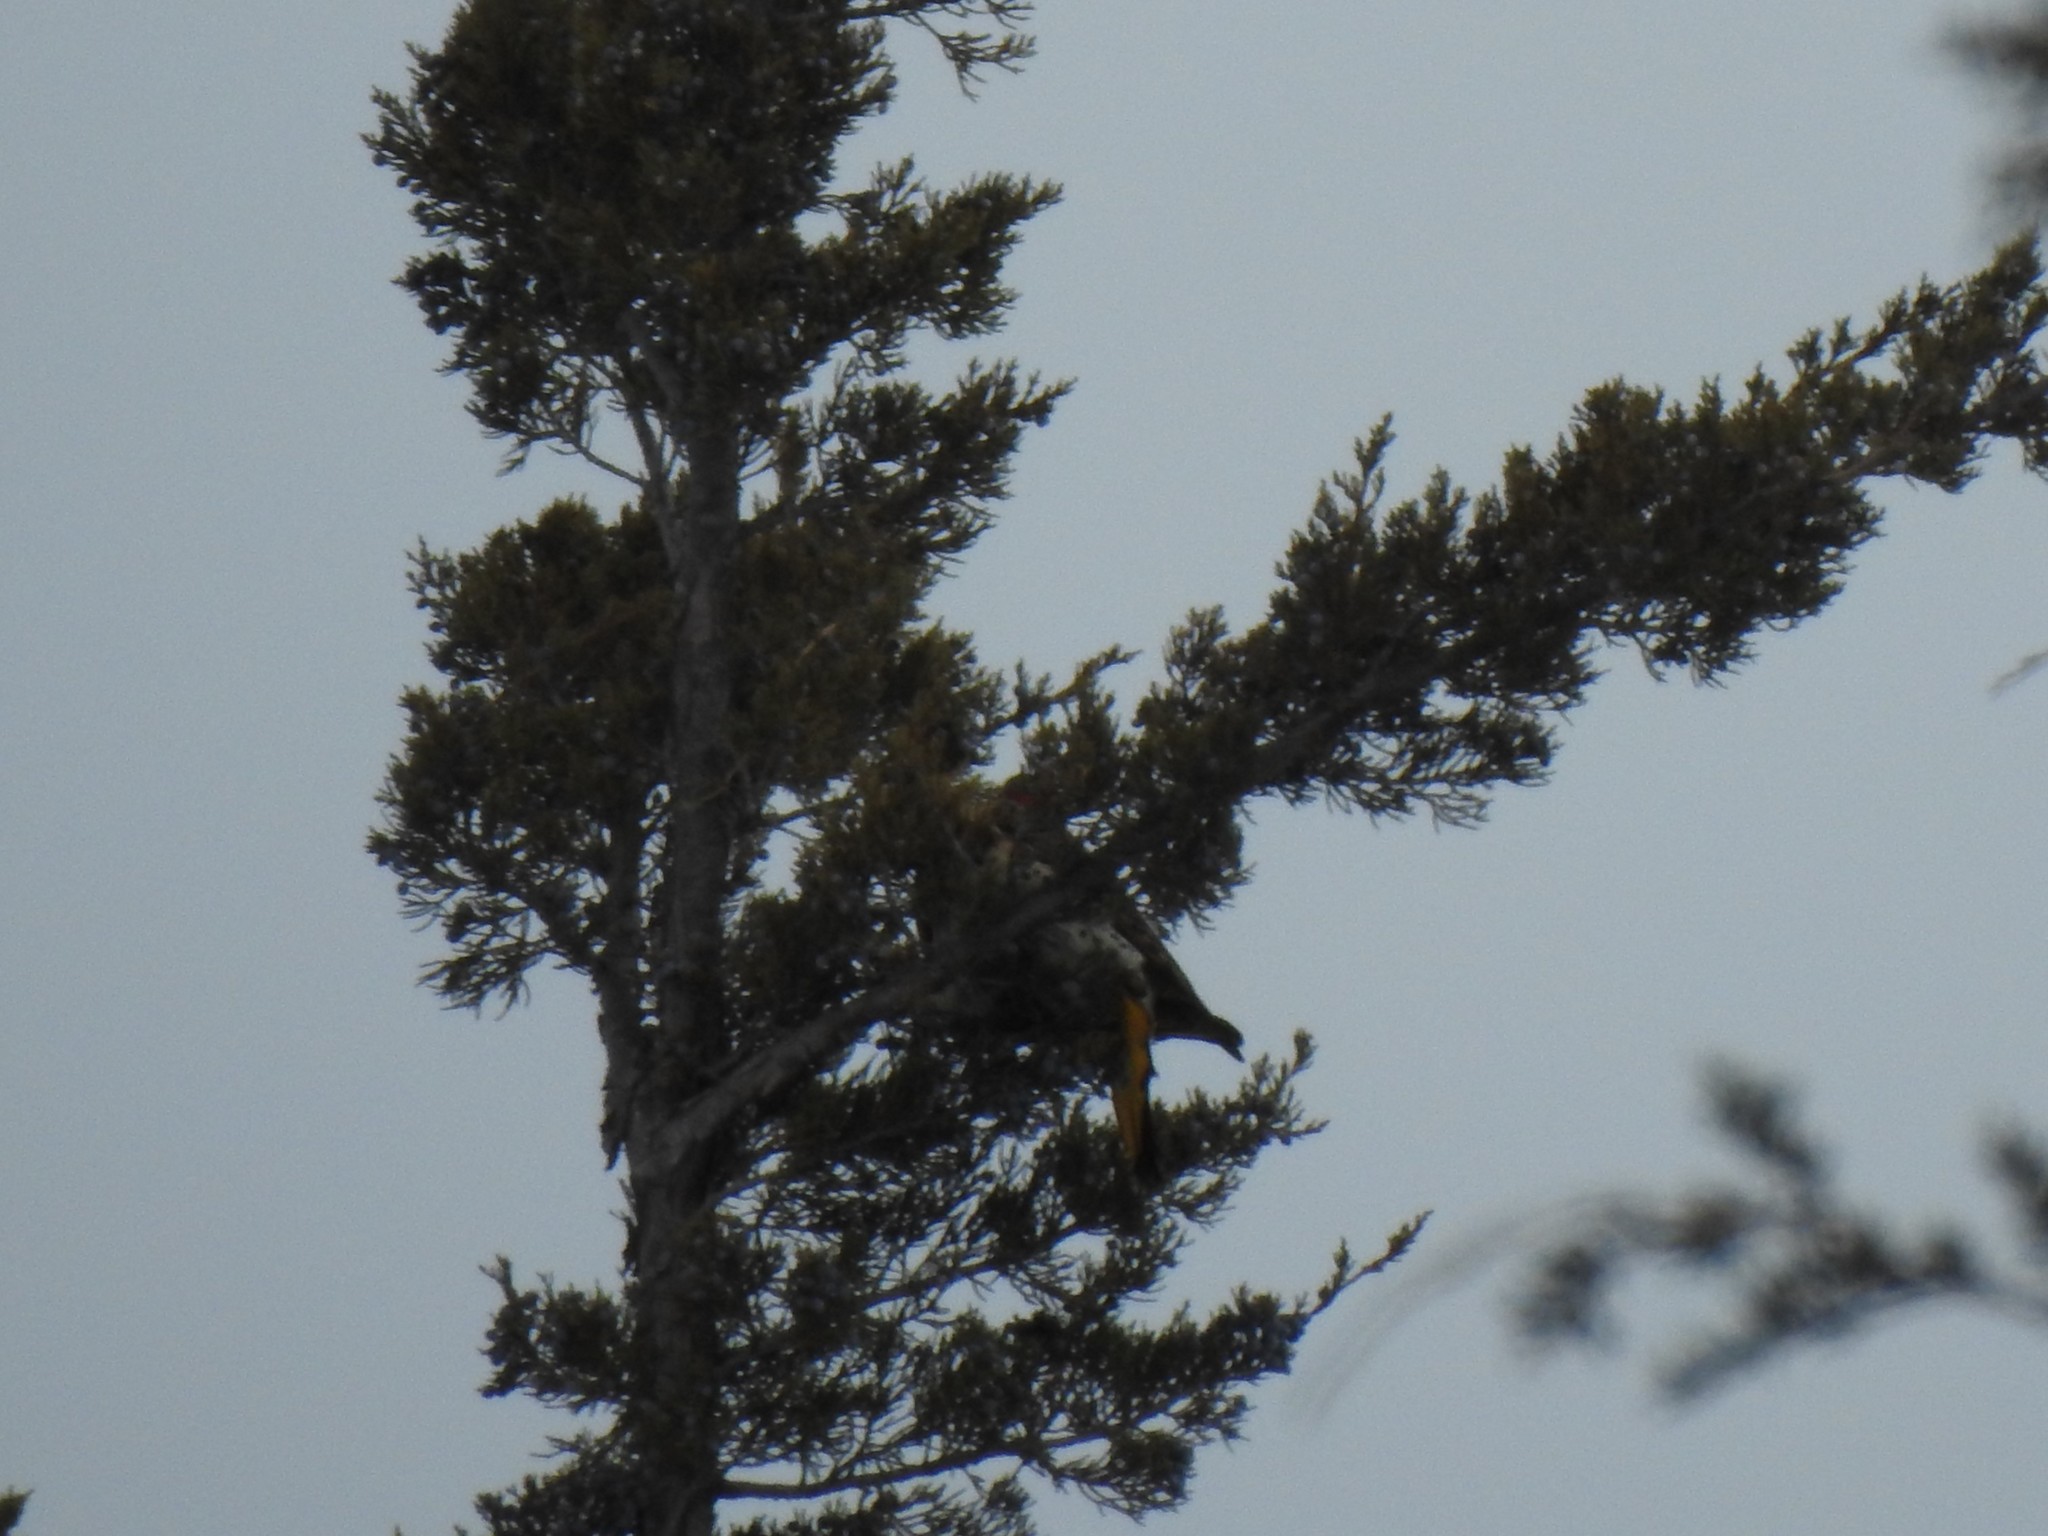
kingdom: Animalia
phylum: Chordata
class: Aves
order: Piciformes
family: Picidae
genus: Colaptes
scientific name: Colaptes auratus
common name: Northern flicker
